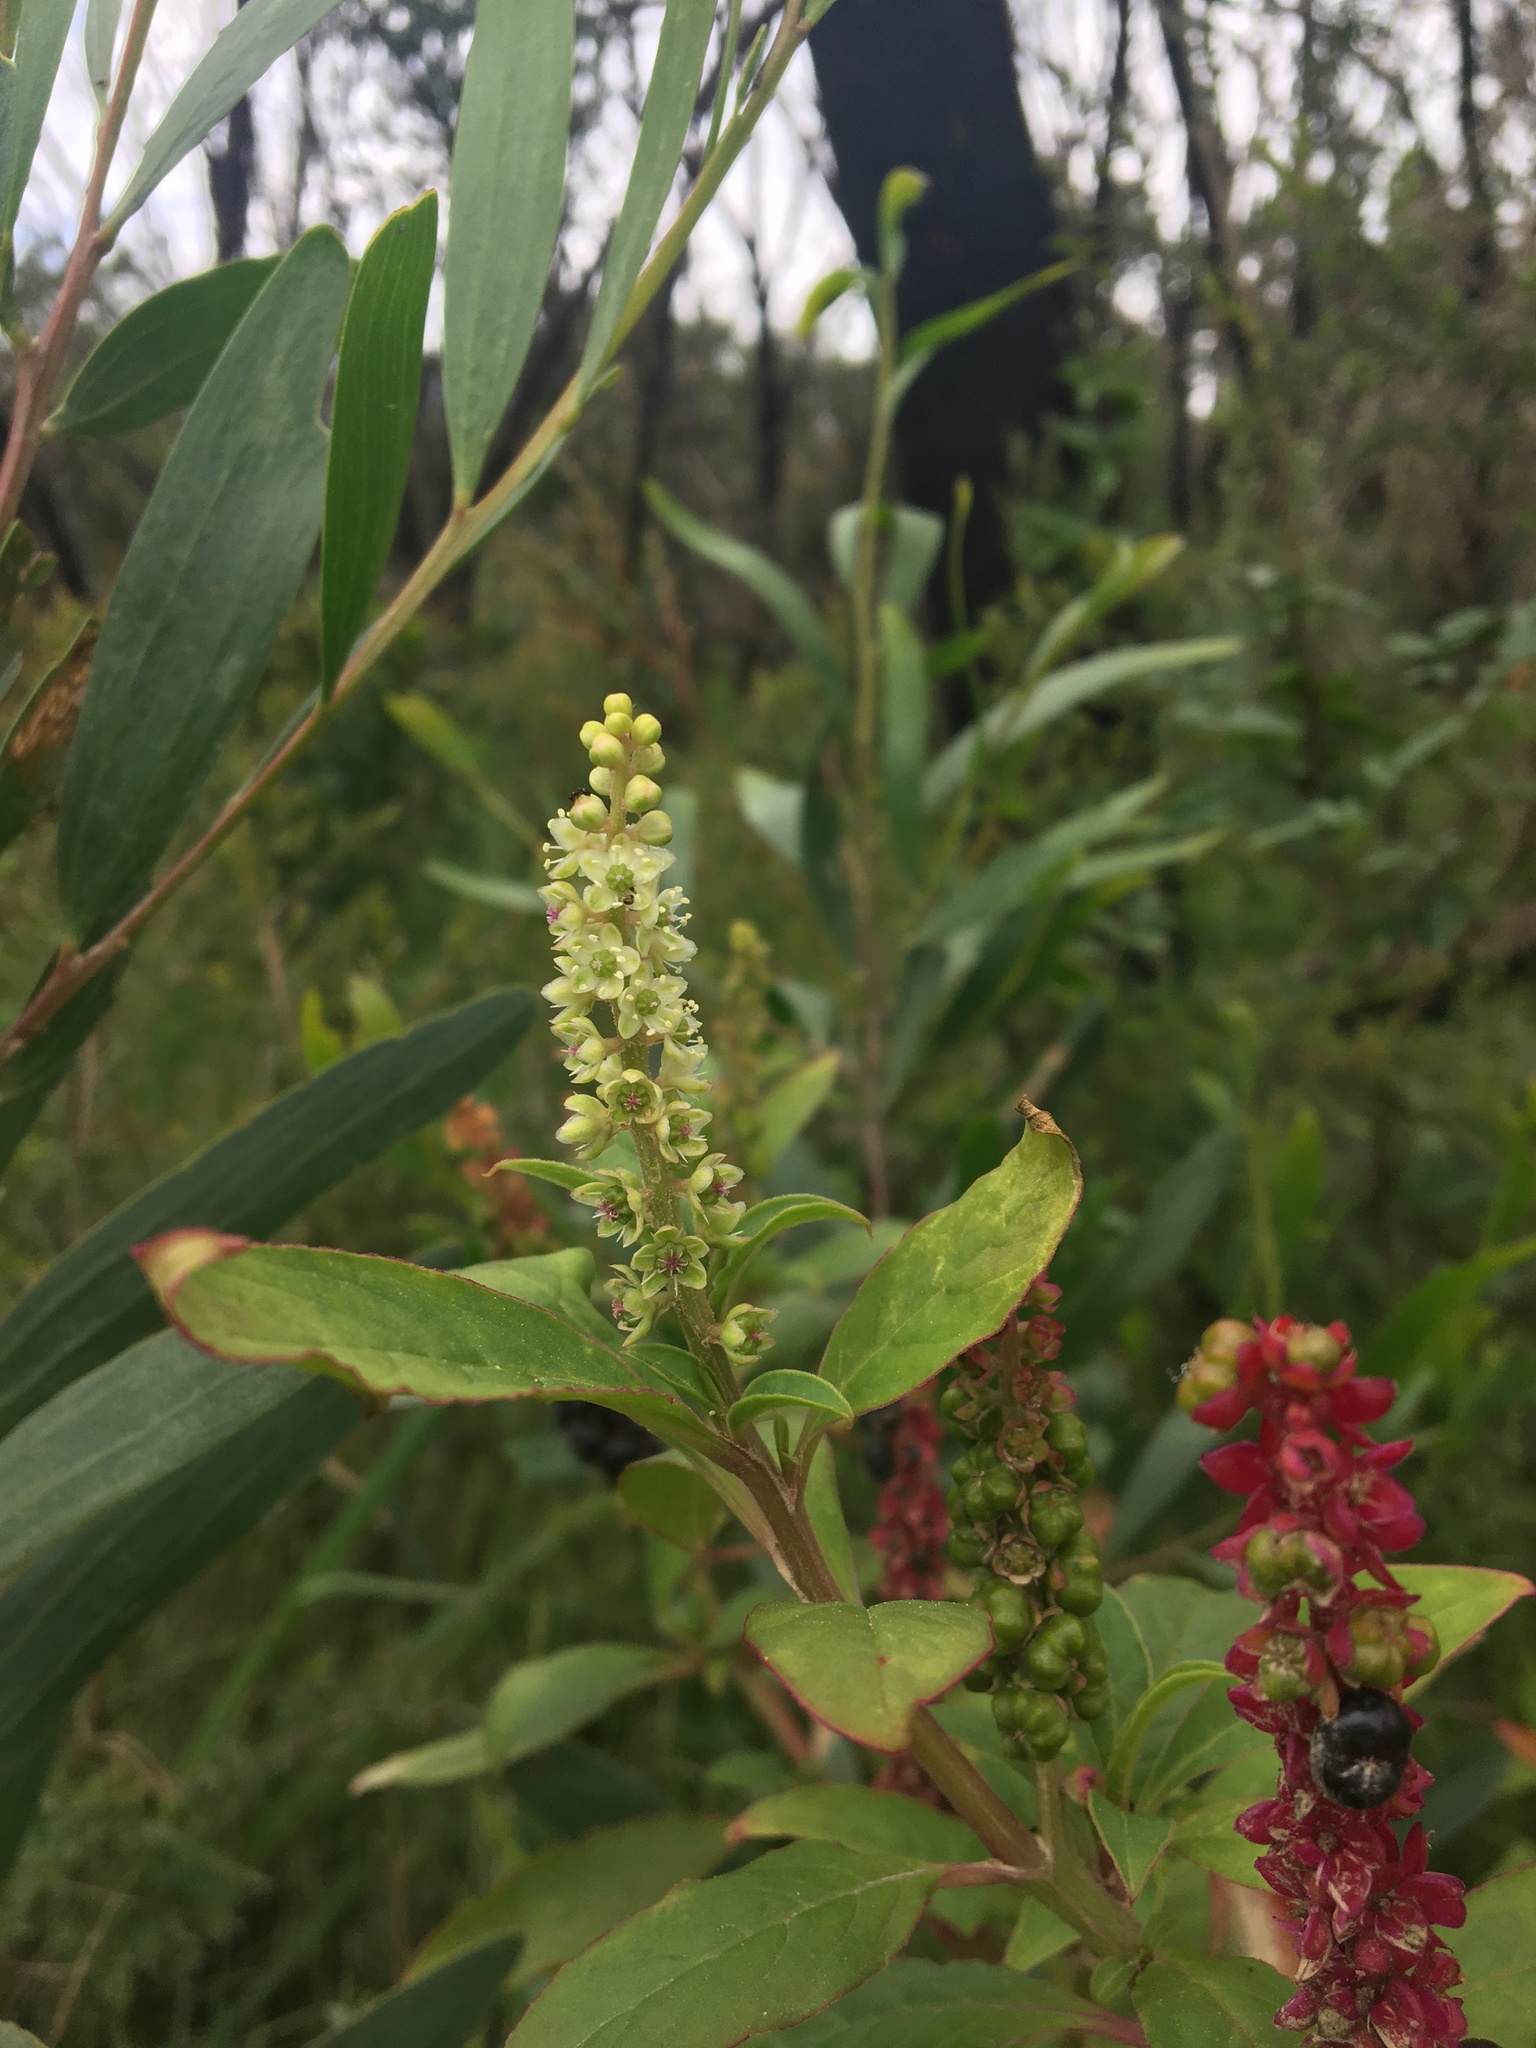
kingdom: Plantae
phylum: Tracheophyta
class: Magnoliopsida
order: Caryophyllales
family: Phytolaccaceae
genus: Phytolacca
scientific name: Phytolacca icosandra
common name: Button pokeweed
